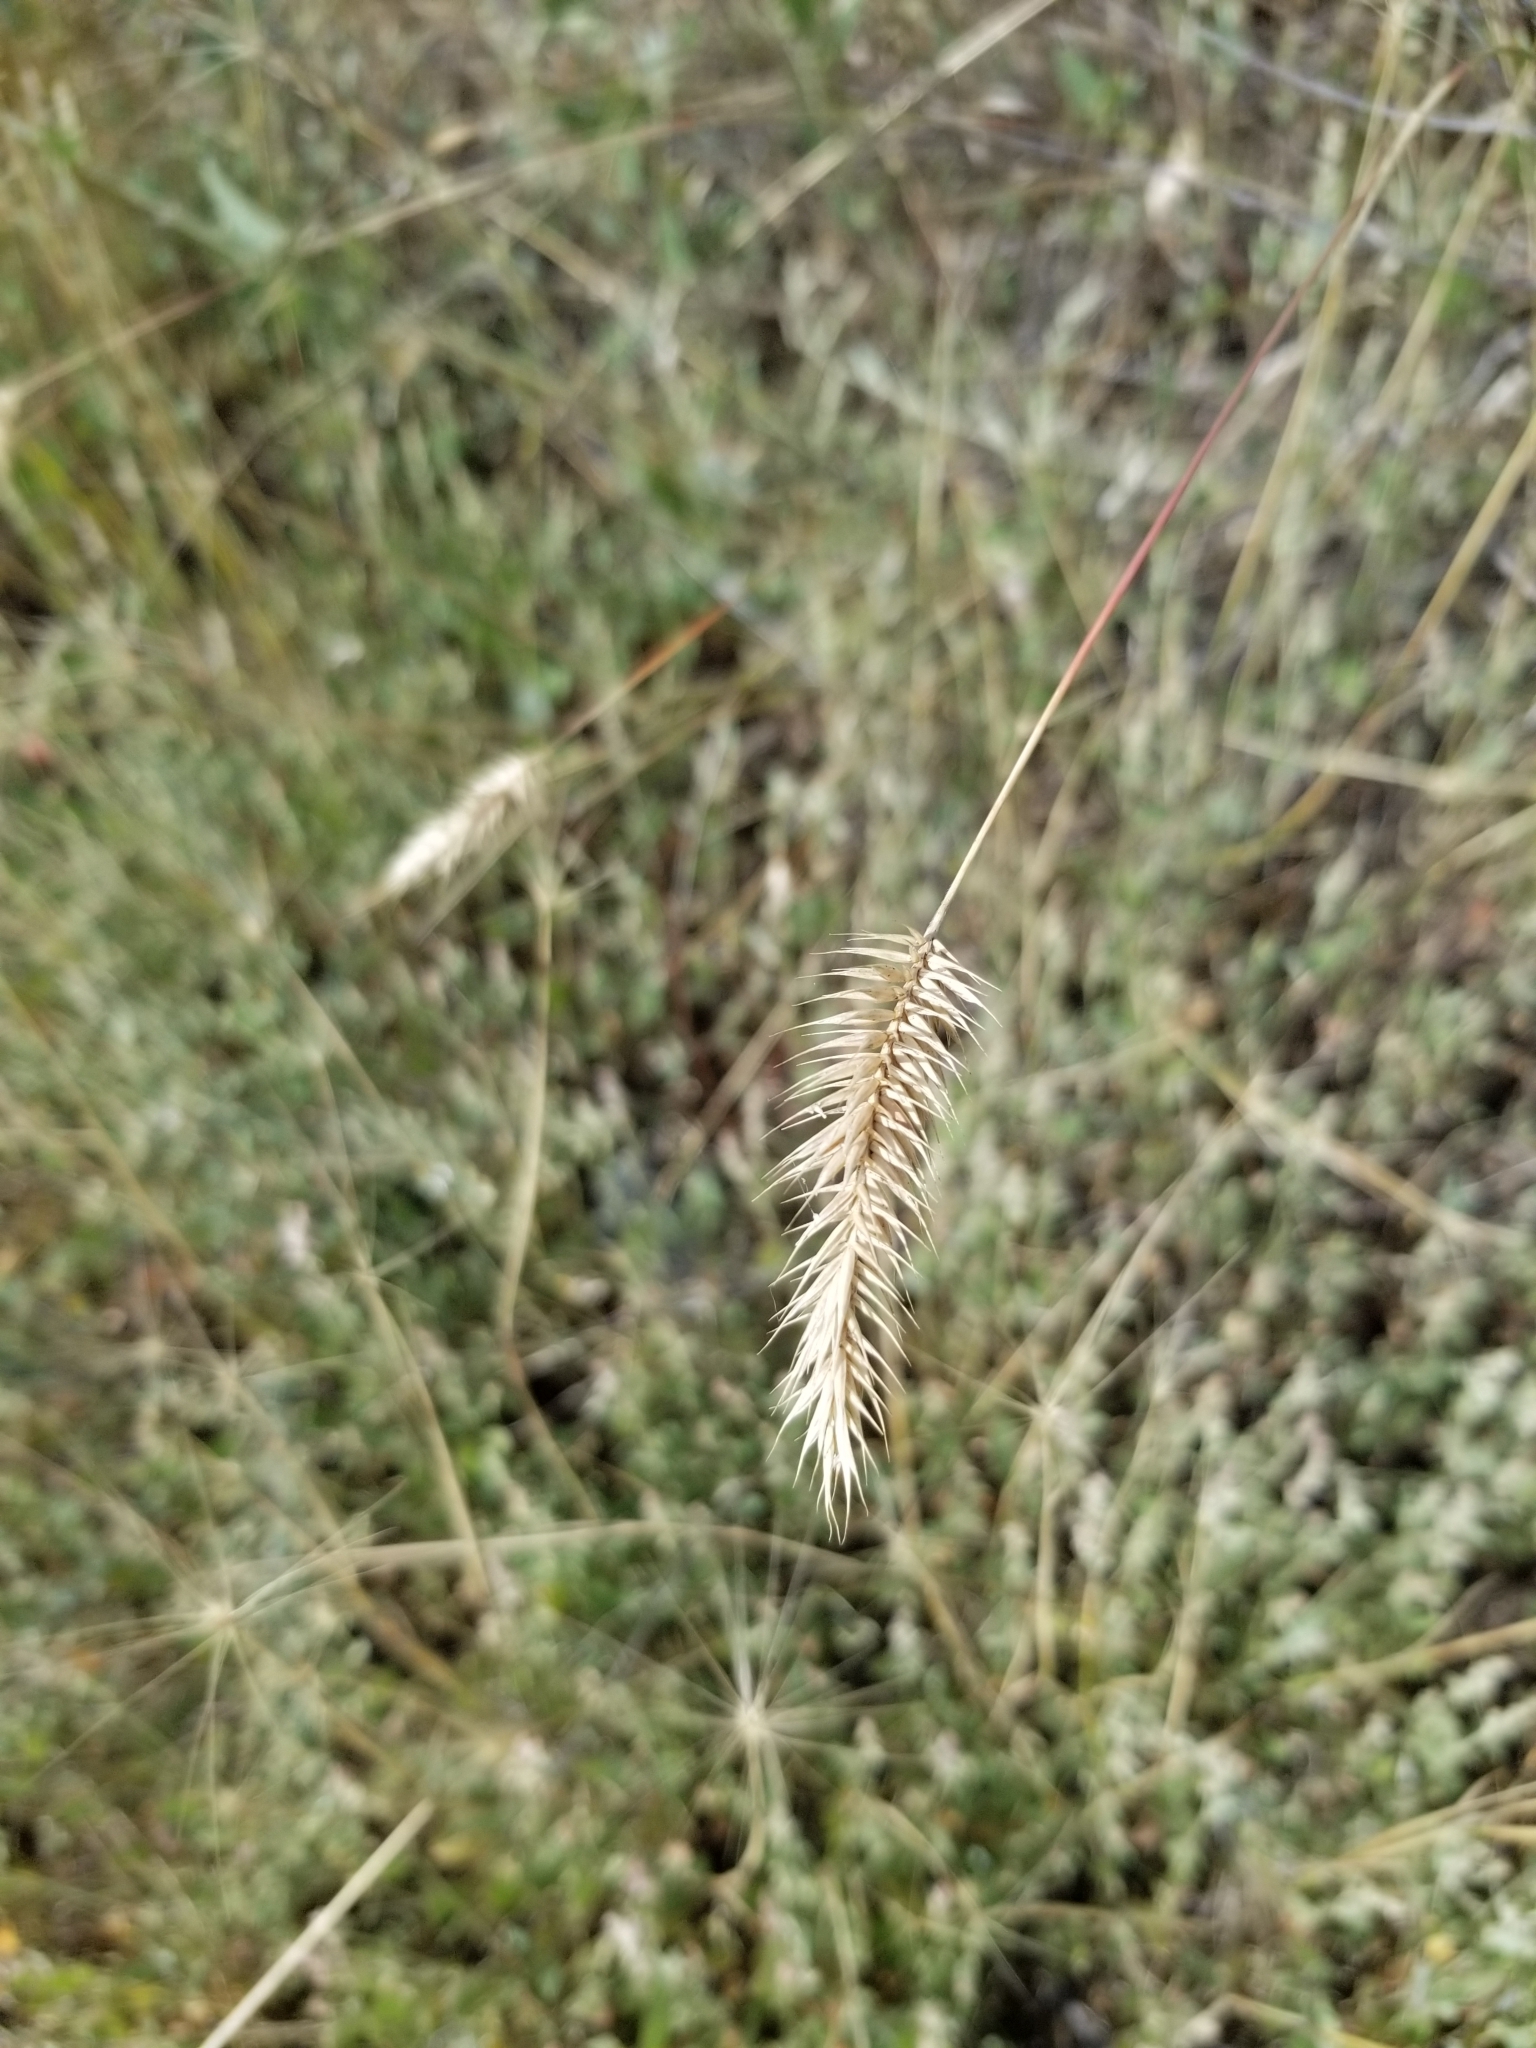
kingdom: Plantae
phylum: Tracheophyta
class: Liliopsida
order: Poales
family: Poaceae
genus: Agropyron
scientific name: Agropyron cristatum
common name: Crested wheatgrass
